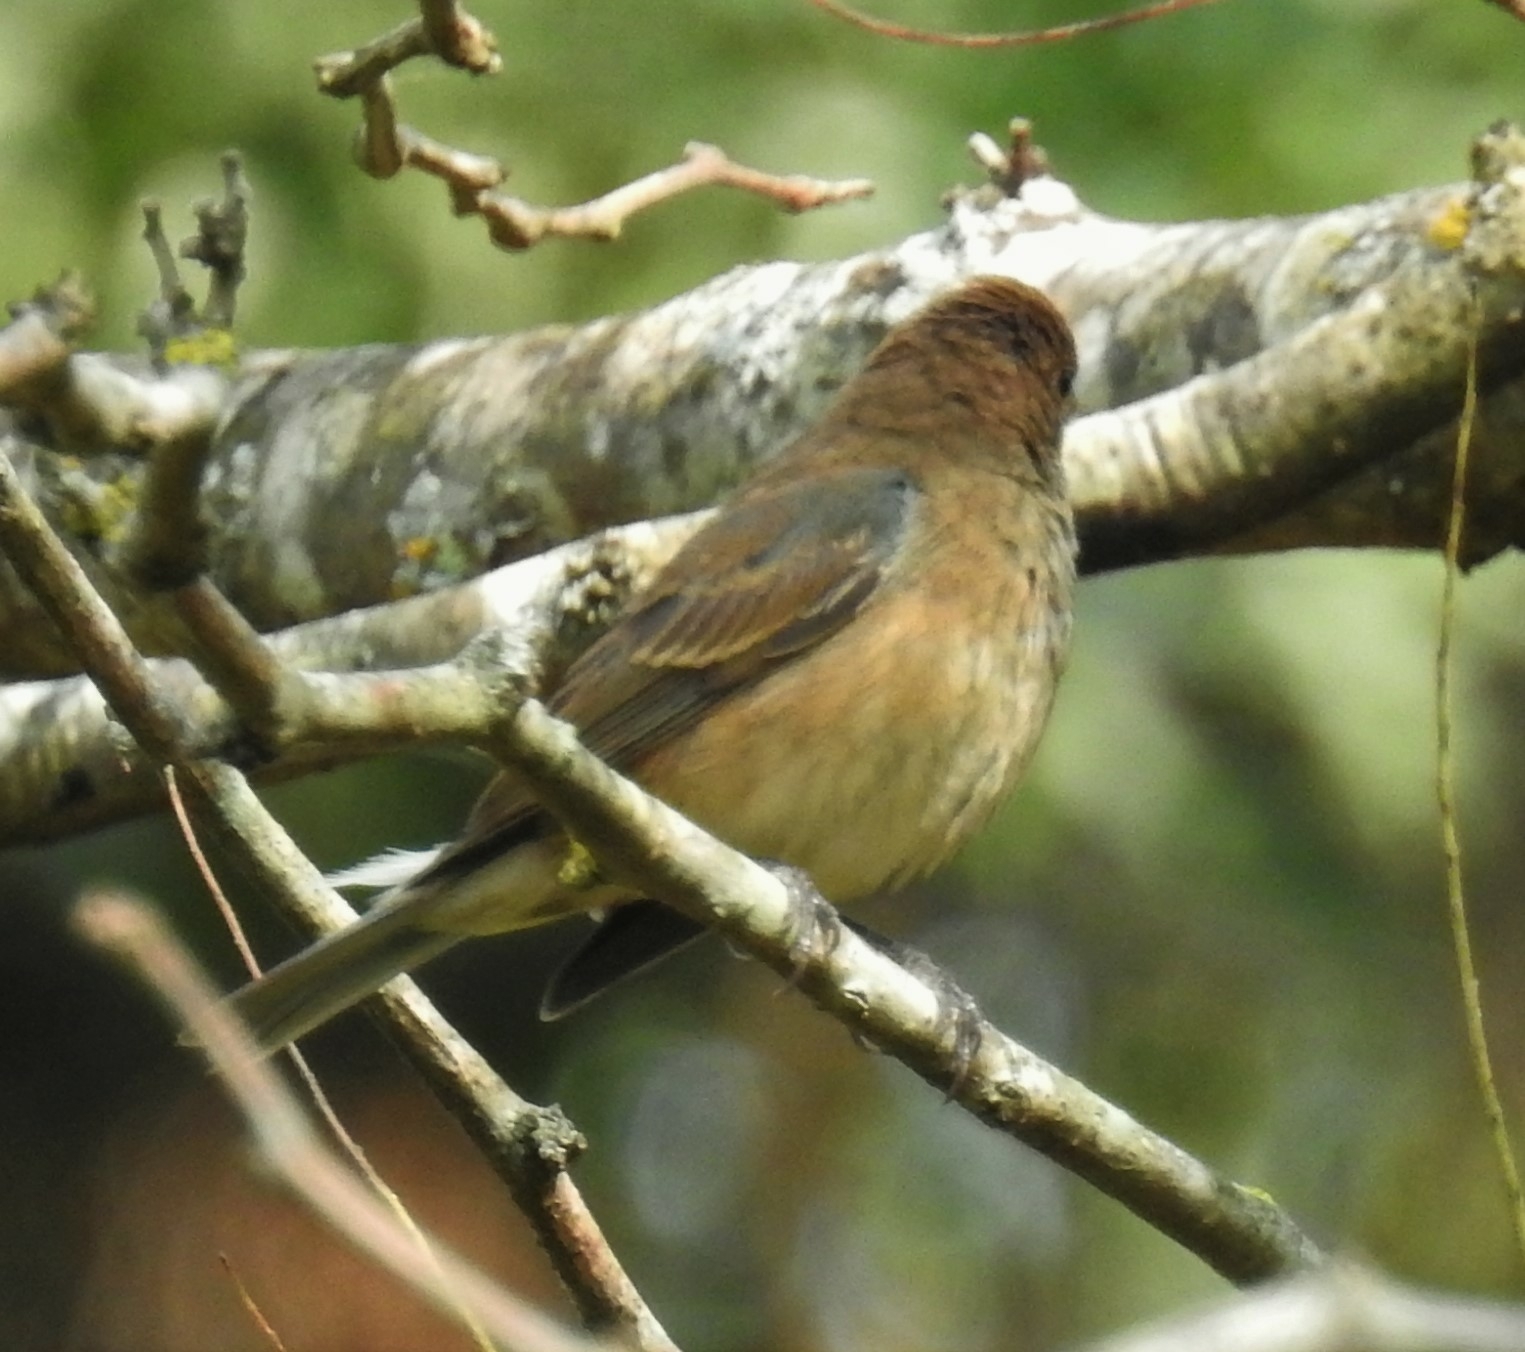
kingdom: Animalia
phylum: Chordata
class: Aves
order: Passeriformes
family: Cardinalidae
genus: Passerina
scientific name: Passerina cyanea
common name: Indigo bunting
